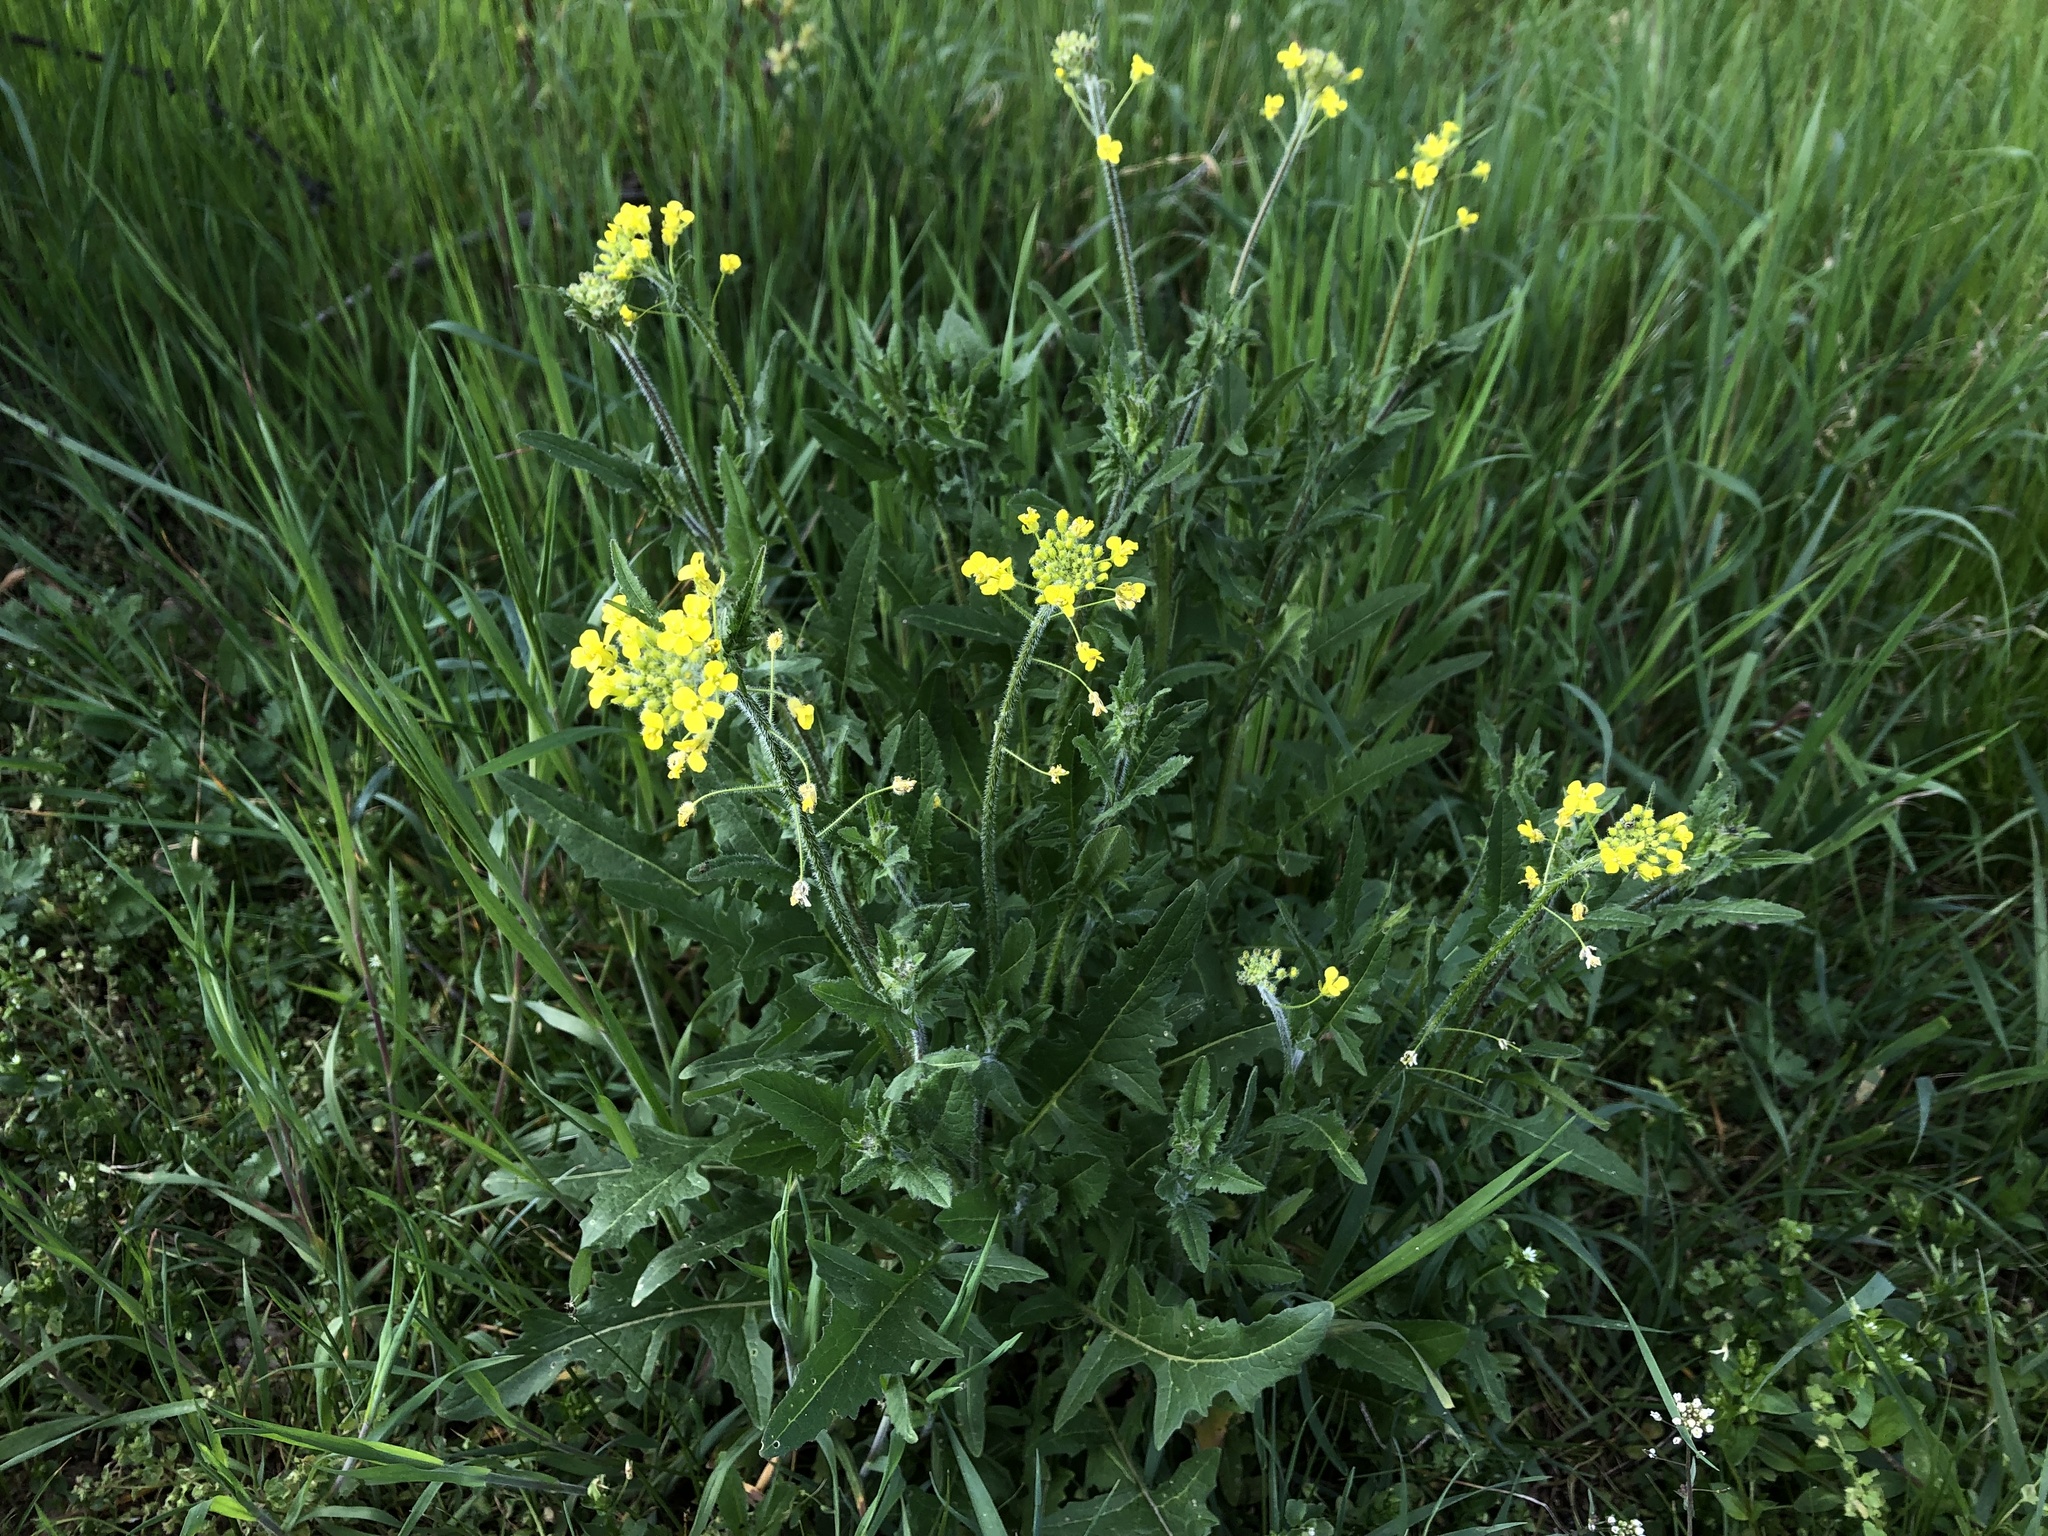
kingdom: Plantae
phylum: Tracheophyta
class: Magnoliopsida
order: Brassicales
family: Brassicaceae
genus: Sisymbrium
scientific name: Sisymbrium loeselii
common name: False london-rocket
